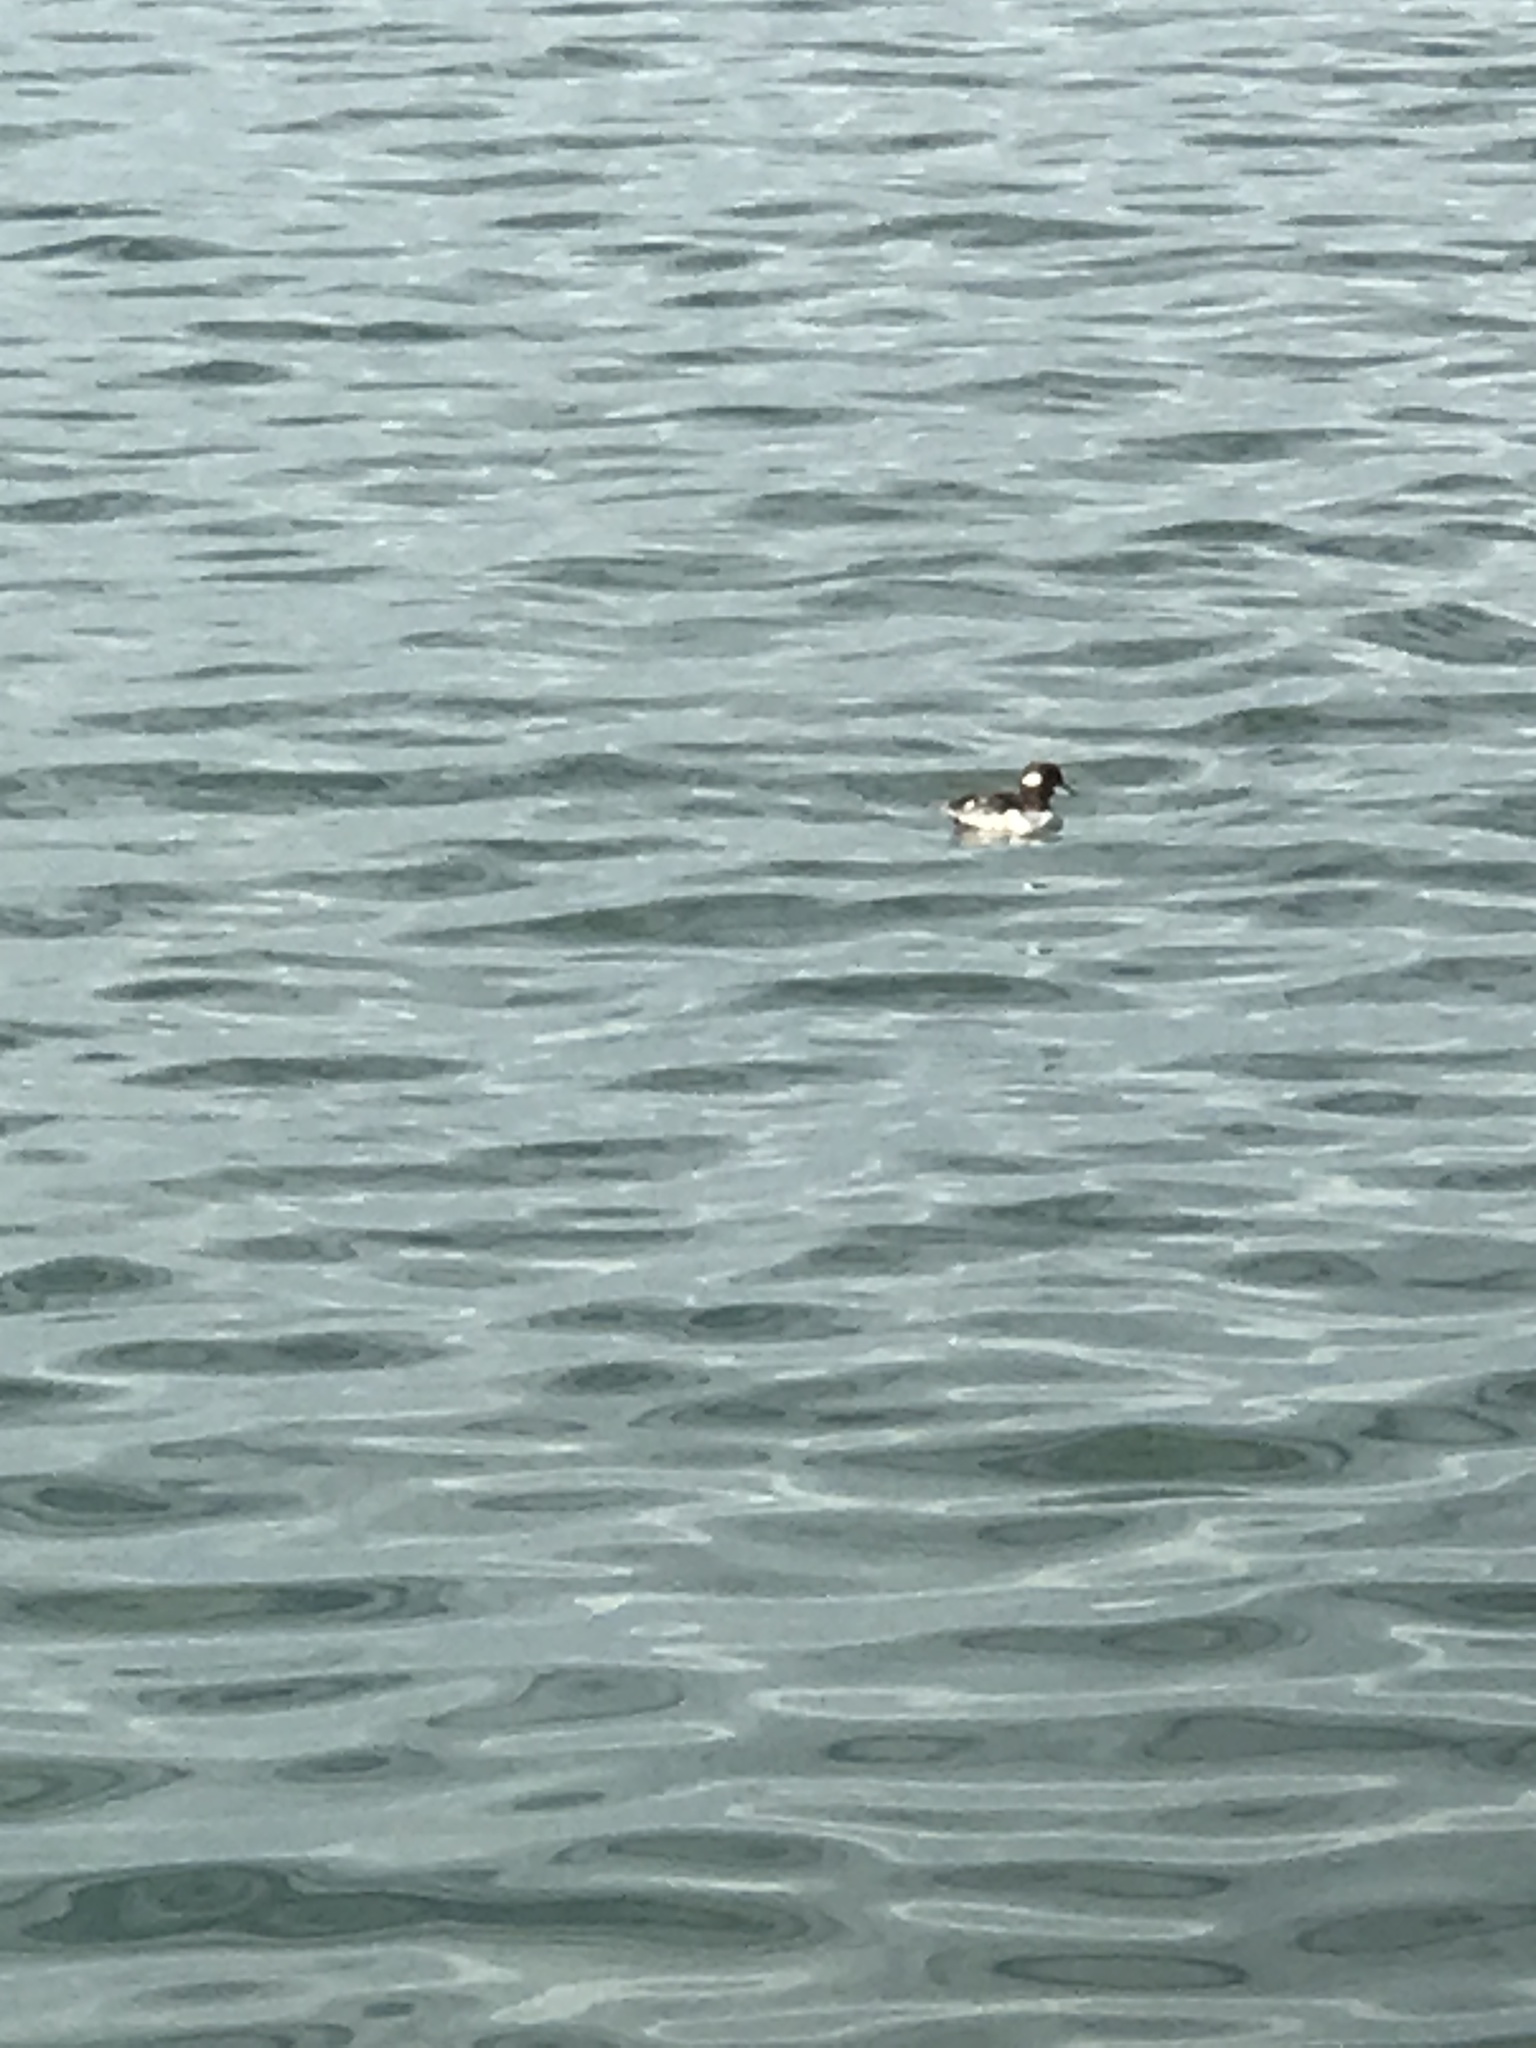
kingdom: Animalia
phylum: Chordata
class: Aves
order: Anseriformes
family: Anatidae
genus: Bucephala
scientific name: Bucephala albeola
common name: Bufflehead
